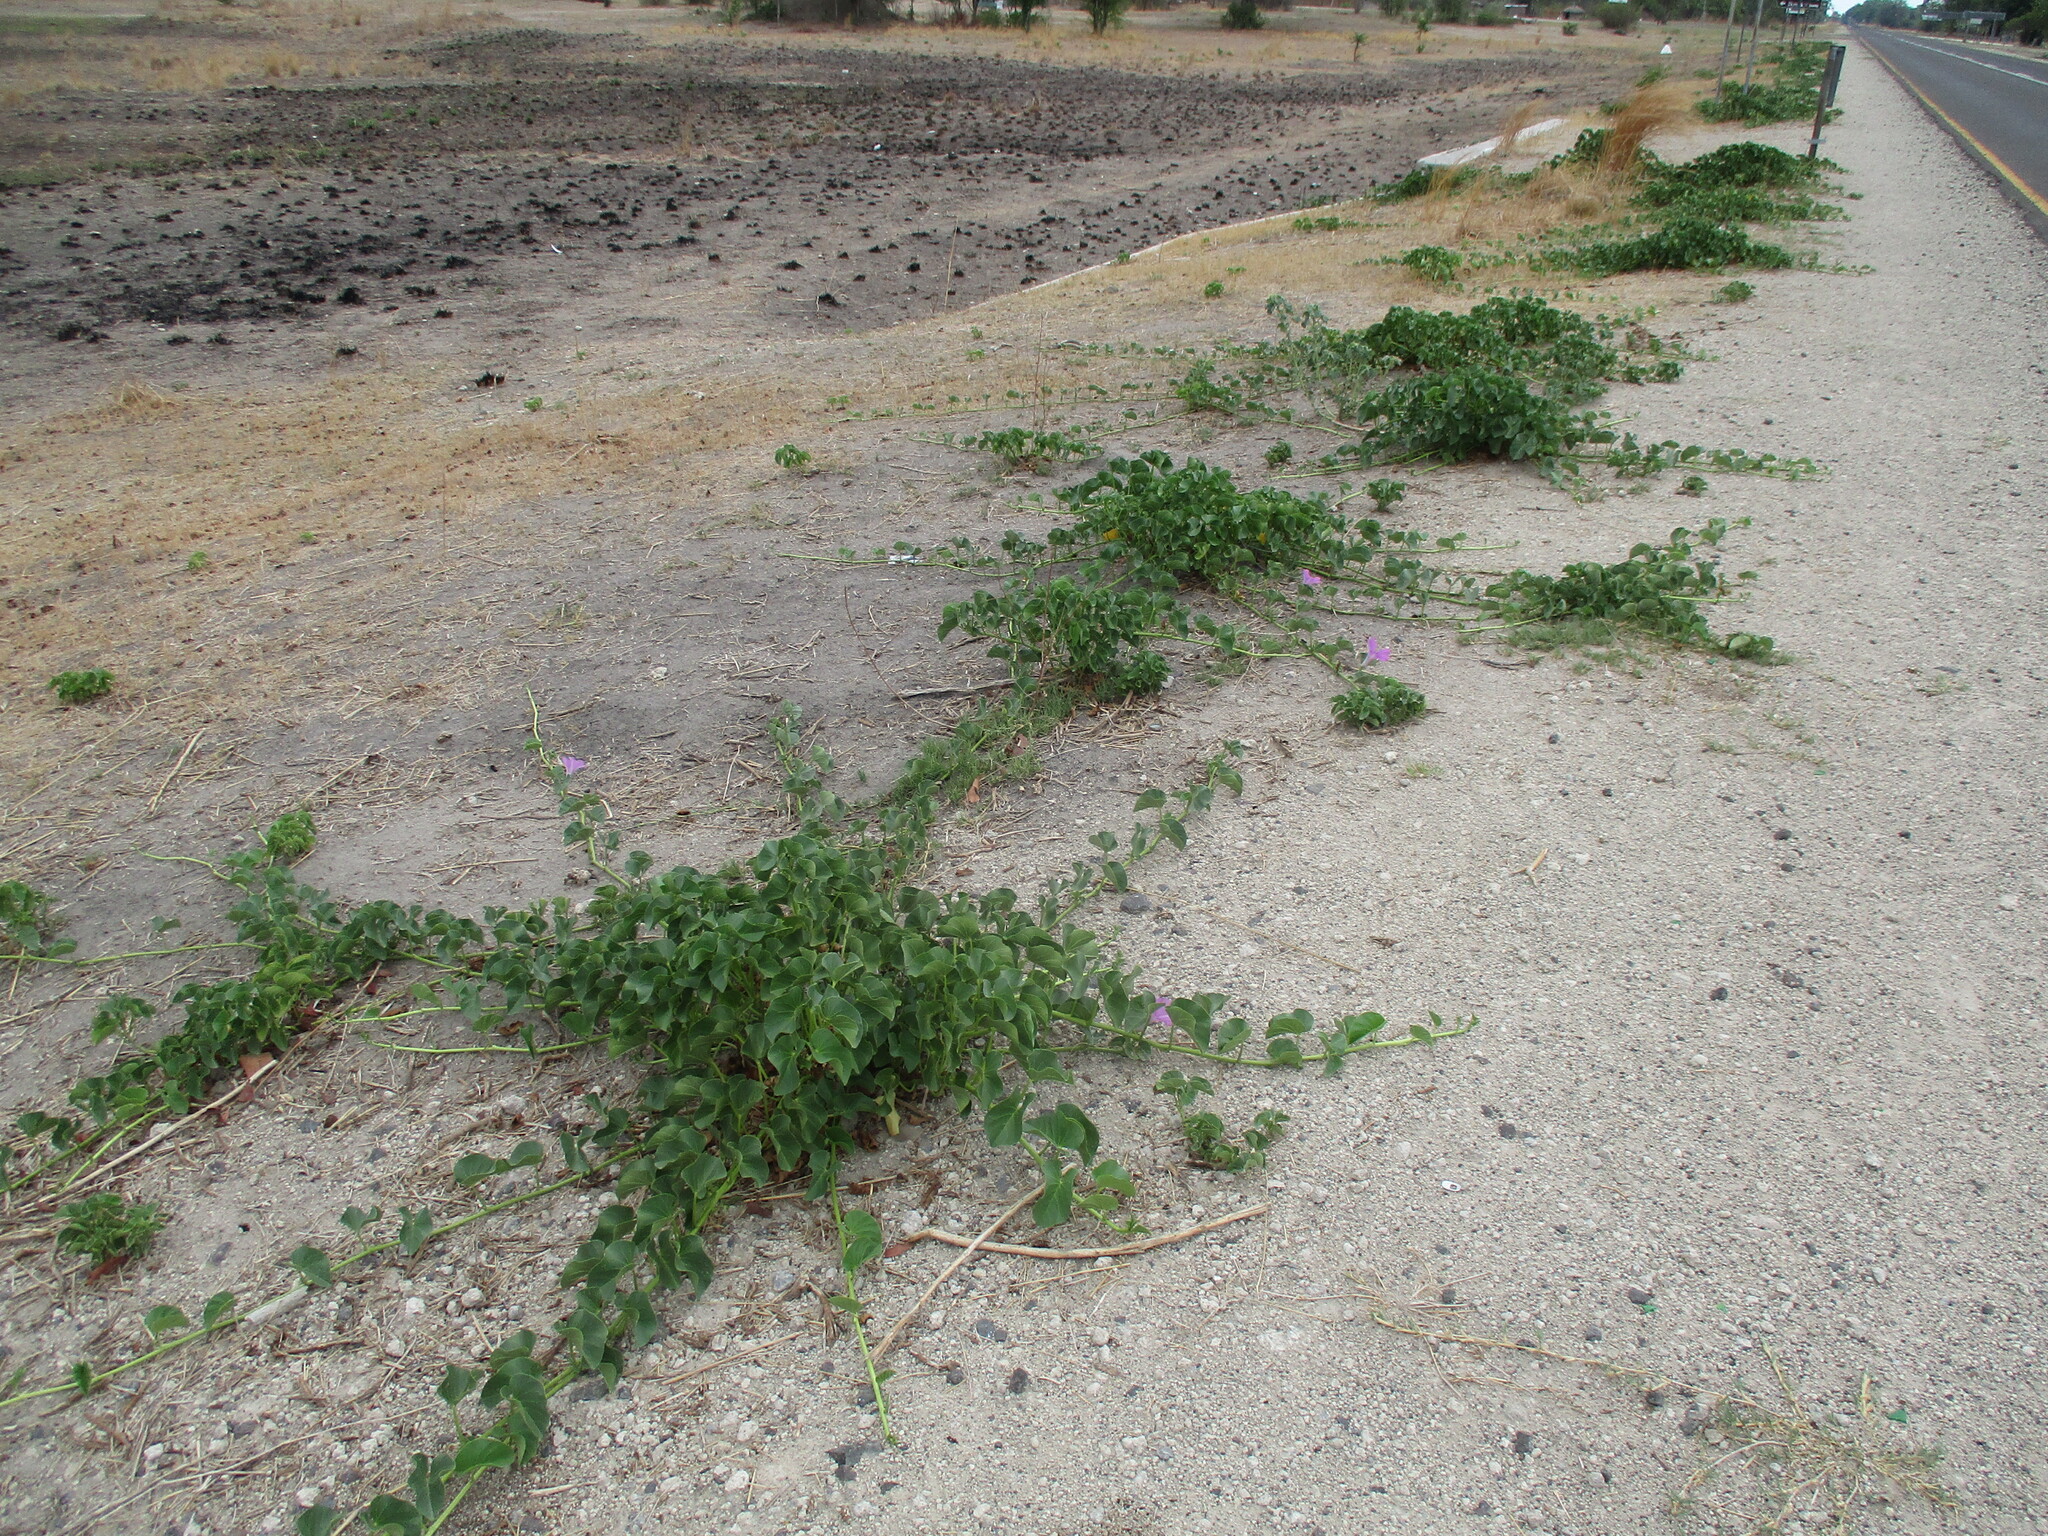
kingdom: Plantae
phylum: Tracheophyta
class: Magnoliopsida
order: Solanales
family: Convolvulaceae
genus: Ipomoea
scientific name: Ipomoea pes-caprae
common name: Beach morning glory
